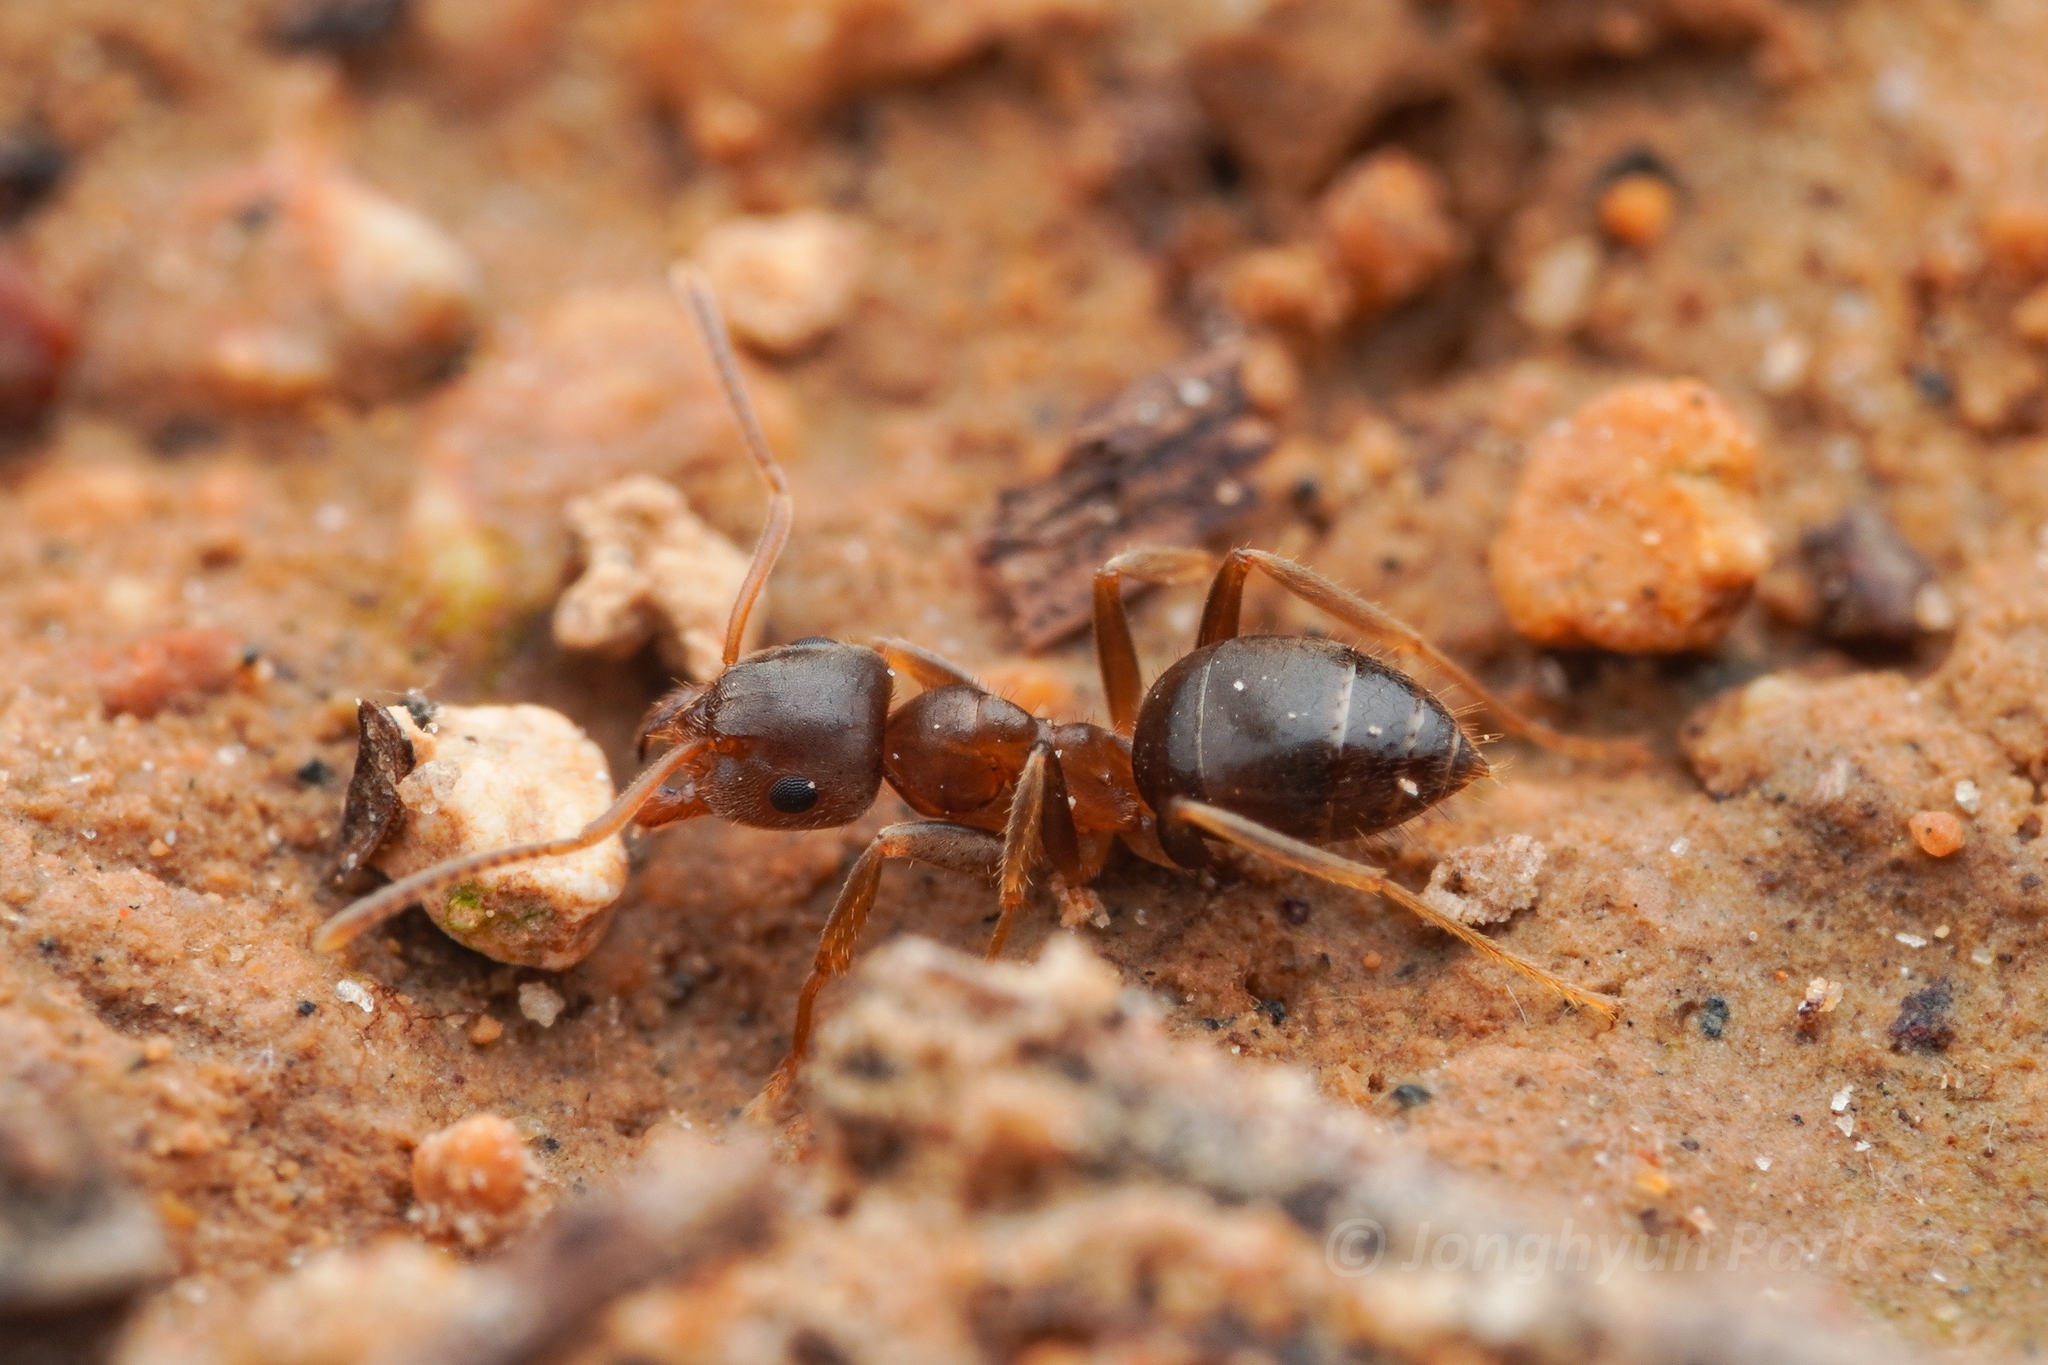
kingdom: Animalia
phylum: Arthropoda
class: Insecta
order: Hymenoptera
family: Formicidae
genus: Lasius
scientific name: Lasius koreanus
